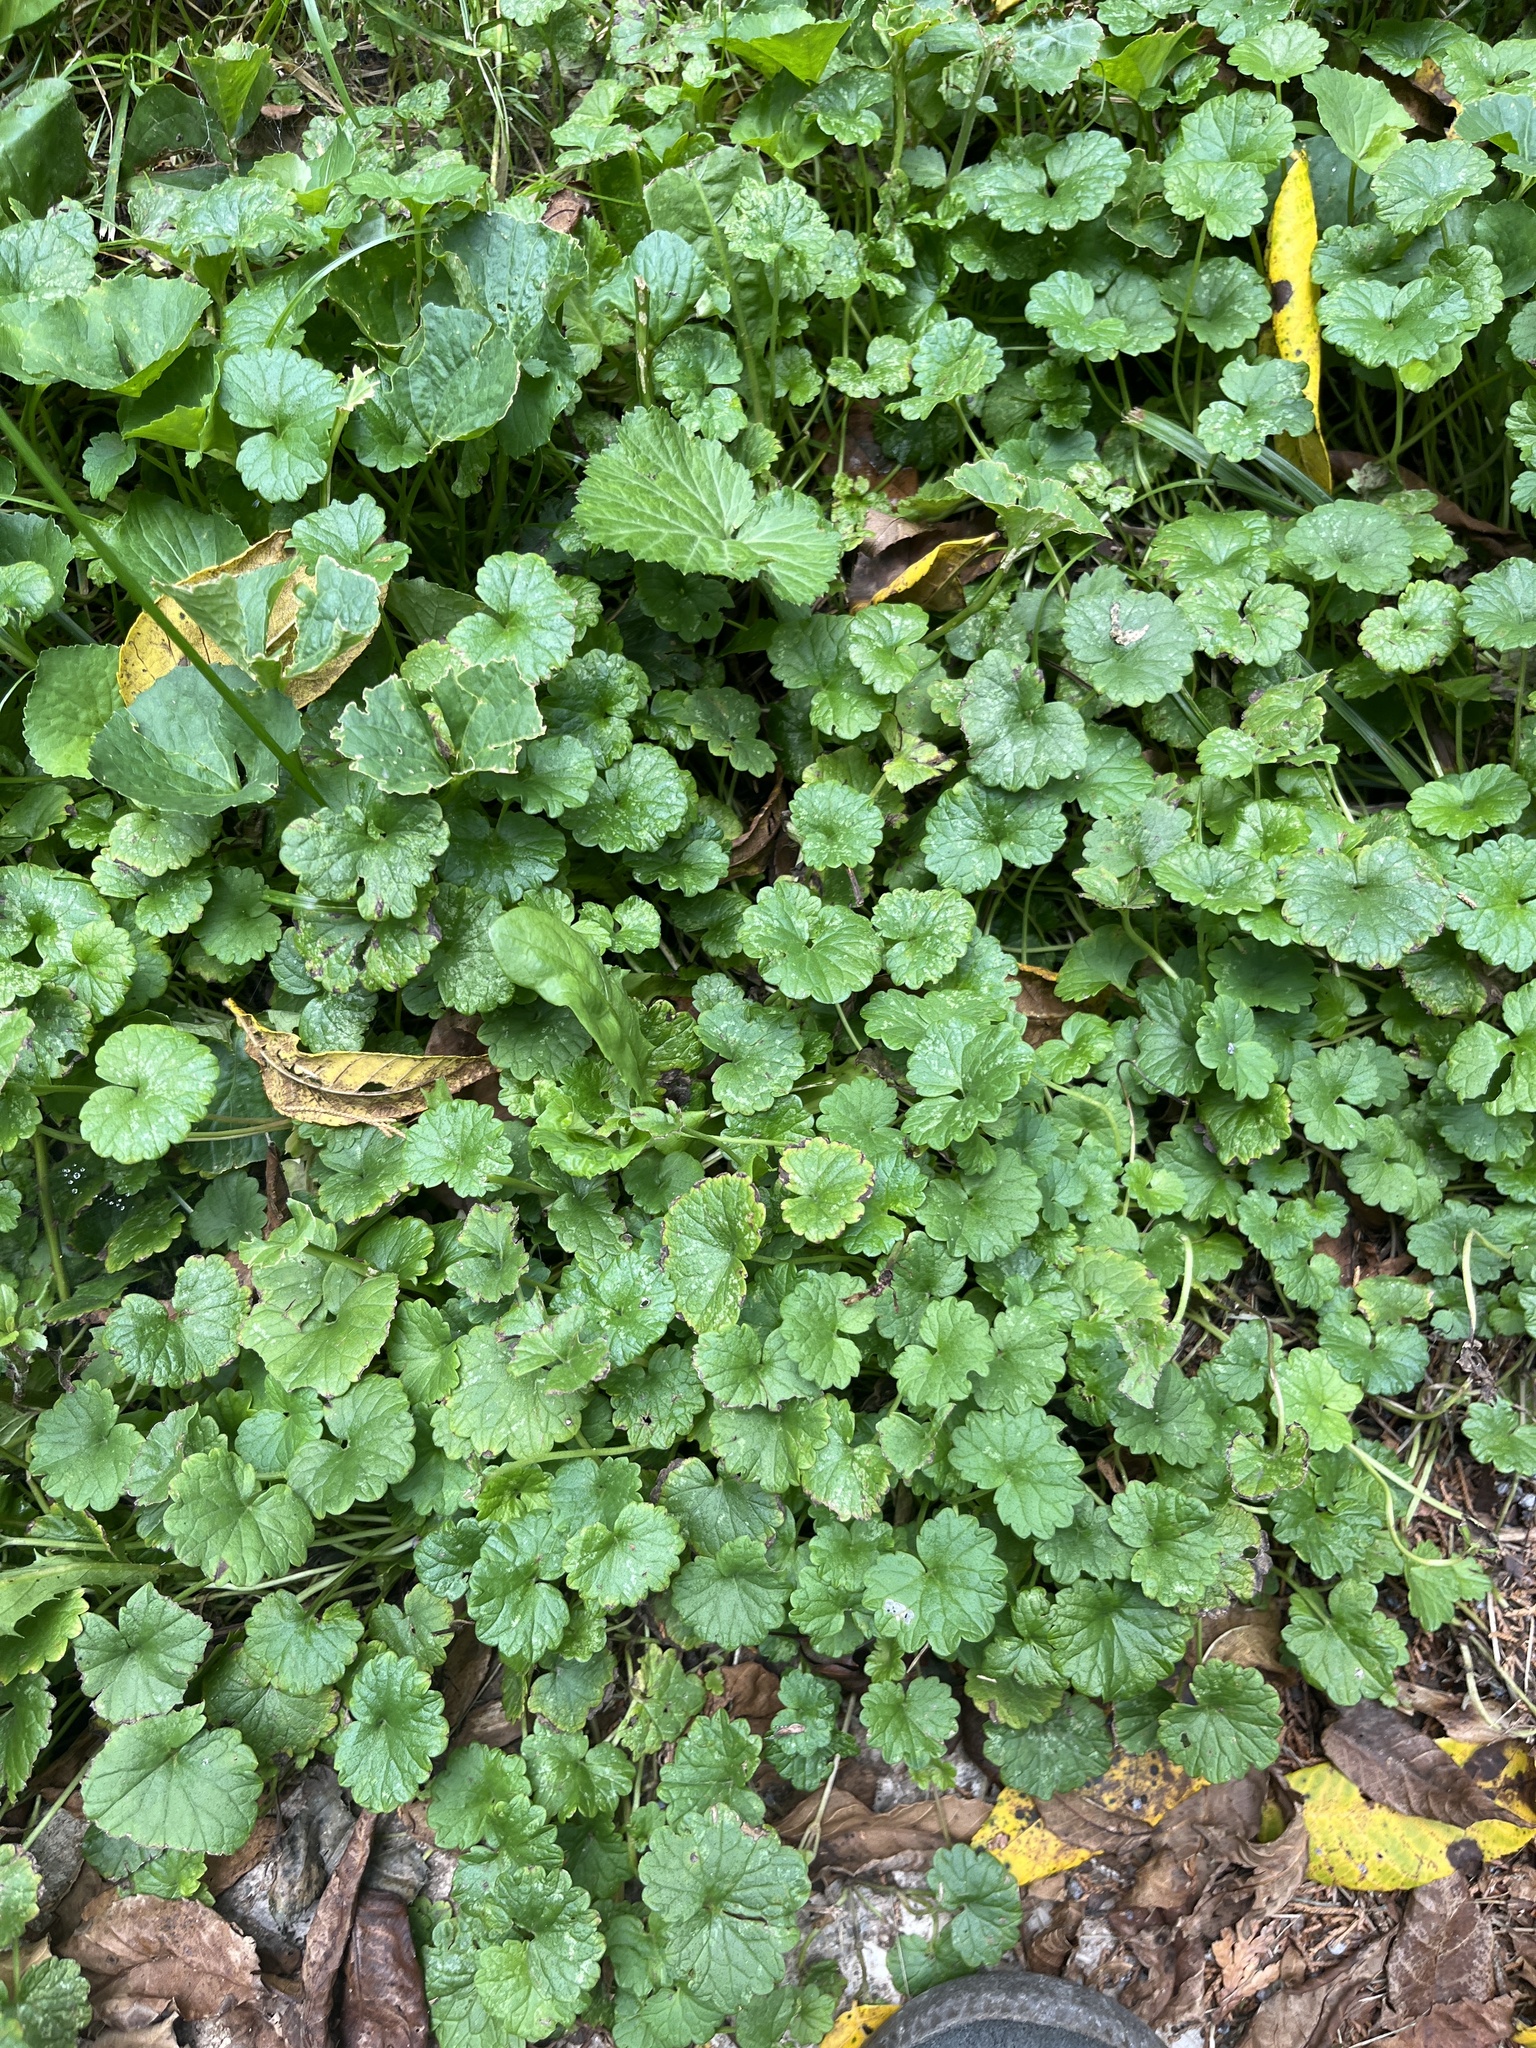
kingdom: Plantae
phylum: Tracheophyta
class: Magnoliopsida
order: Lamiales
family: Lamiaceae
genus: Glechoma
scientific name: Glechoma hederacea
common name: Ground ivy
